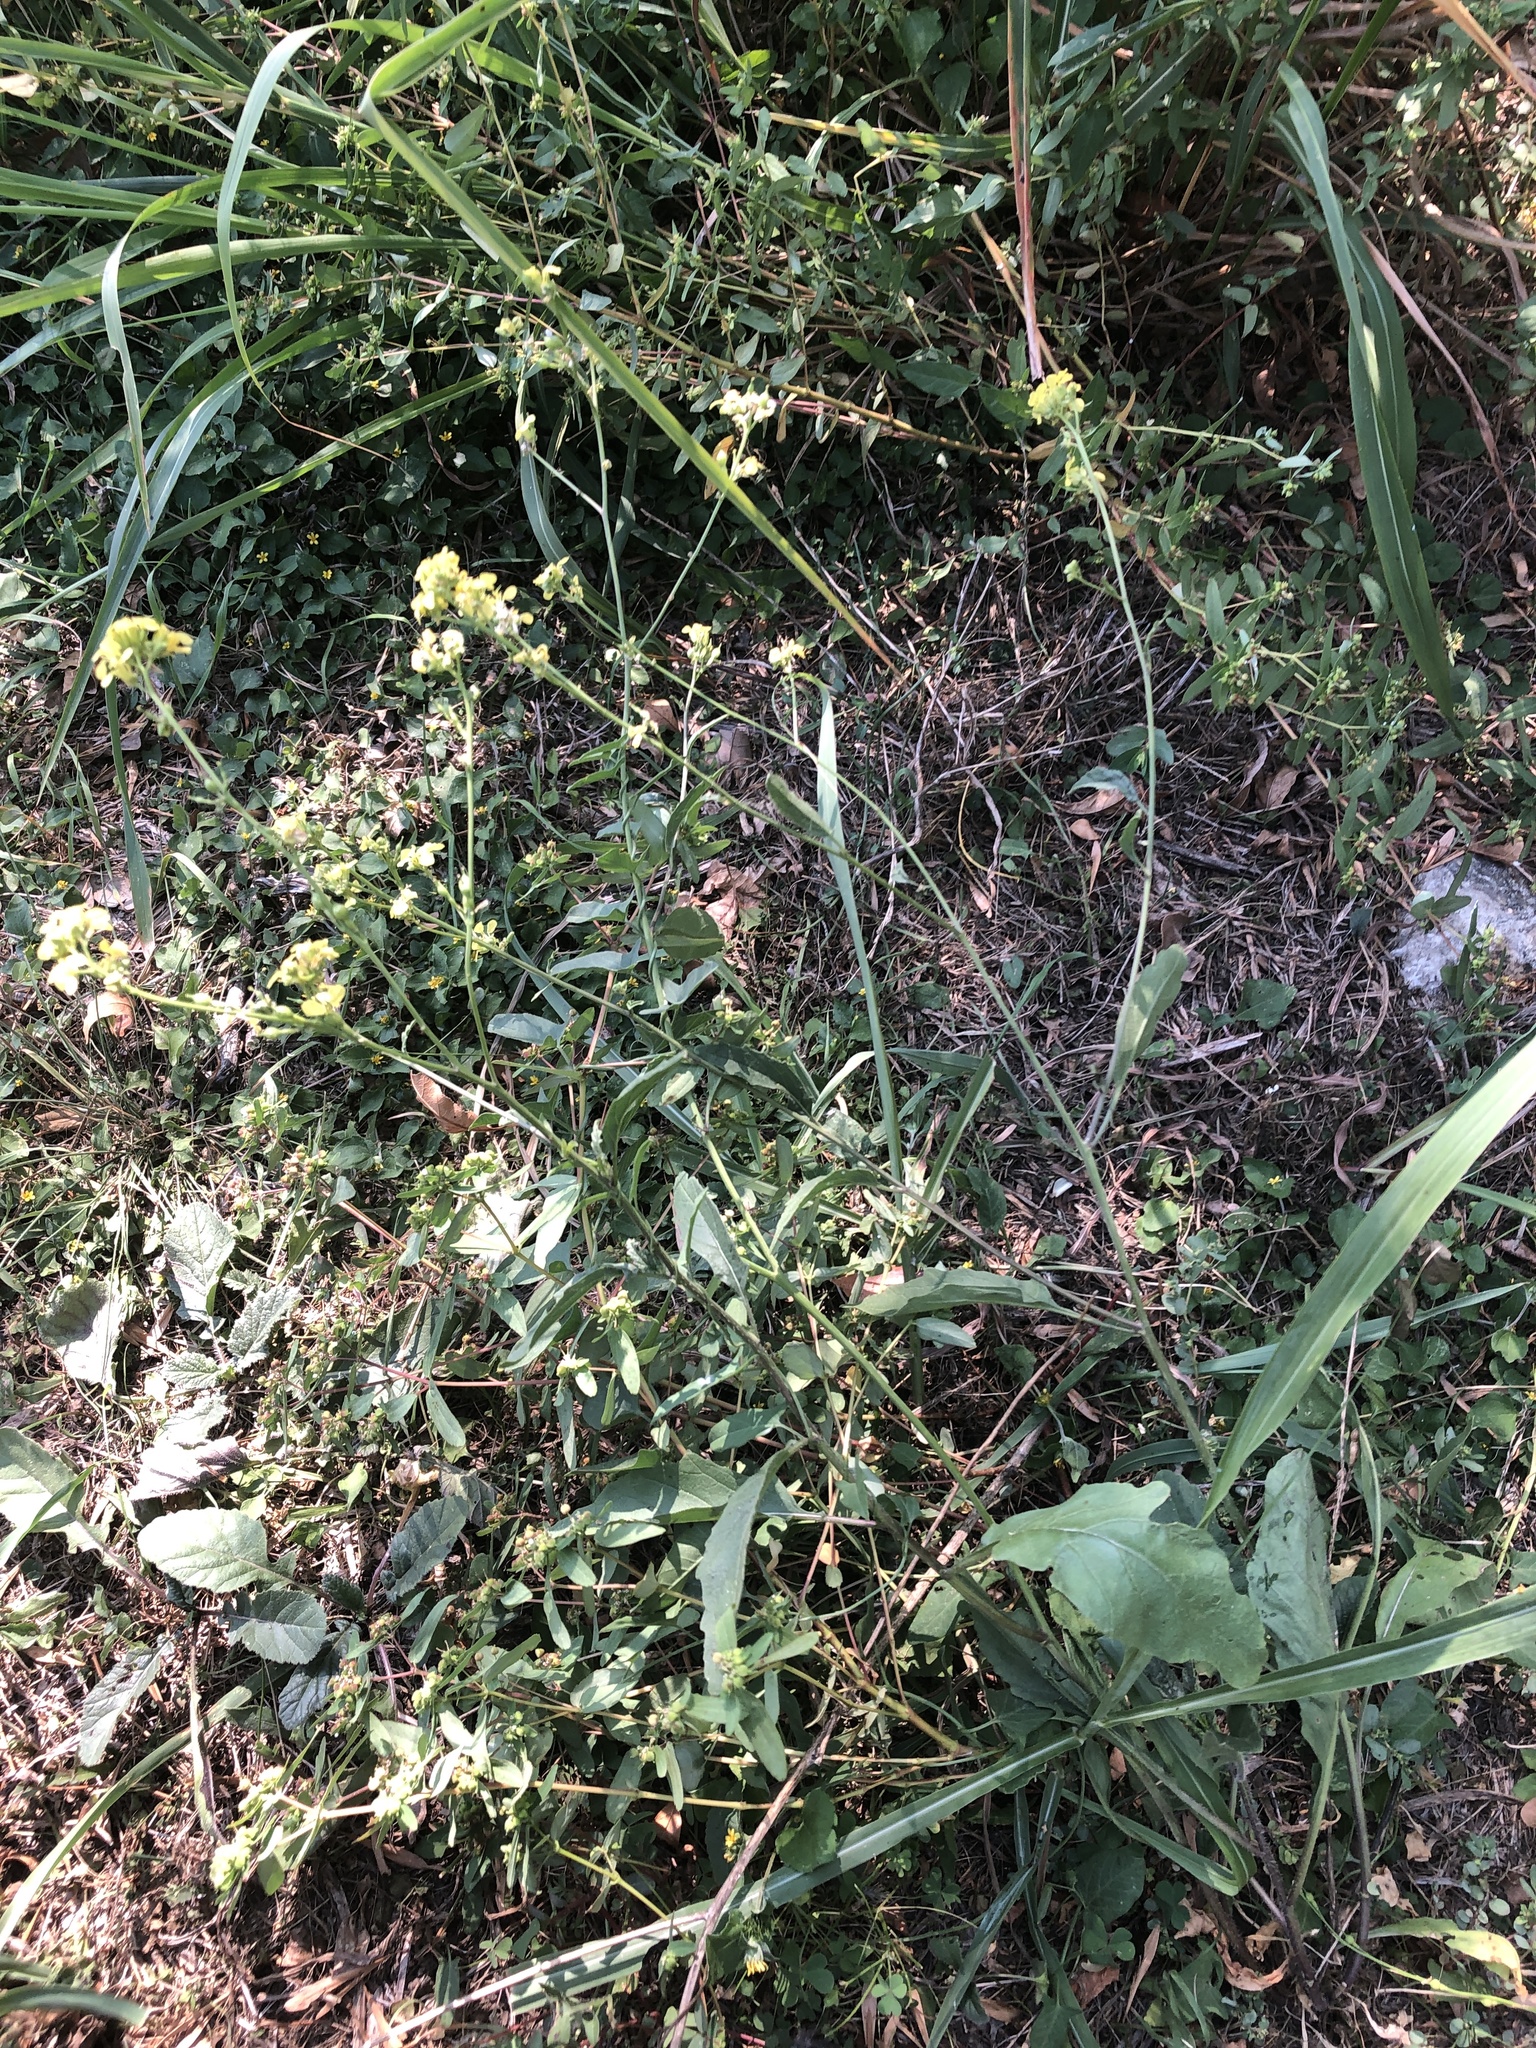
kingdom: Plantae
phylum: Tracheophyta
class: Magnoliopsida
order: Brassicales
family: Brassicaceae
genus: Rapistrum
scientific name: Rapistrum rugosum
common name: Annual bastardcabbage
